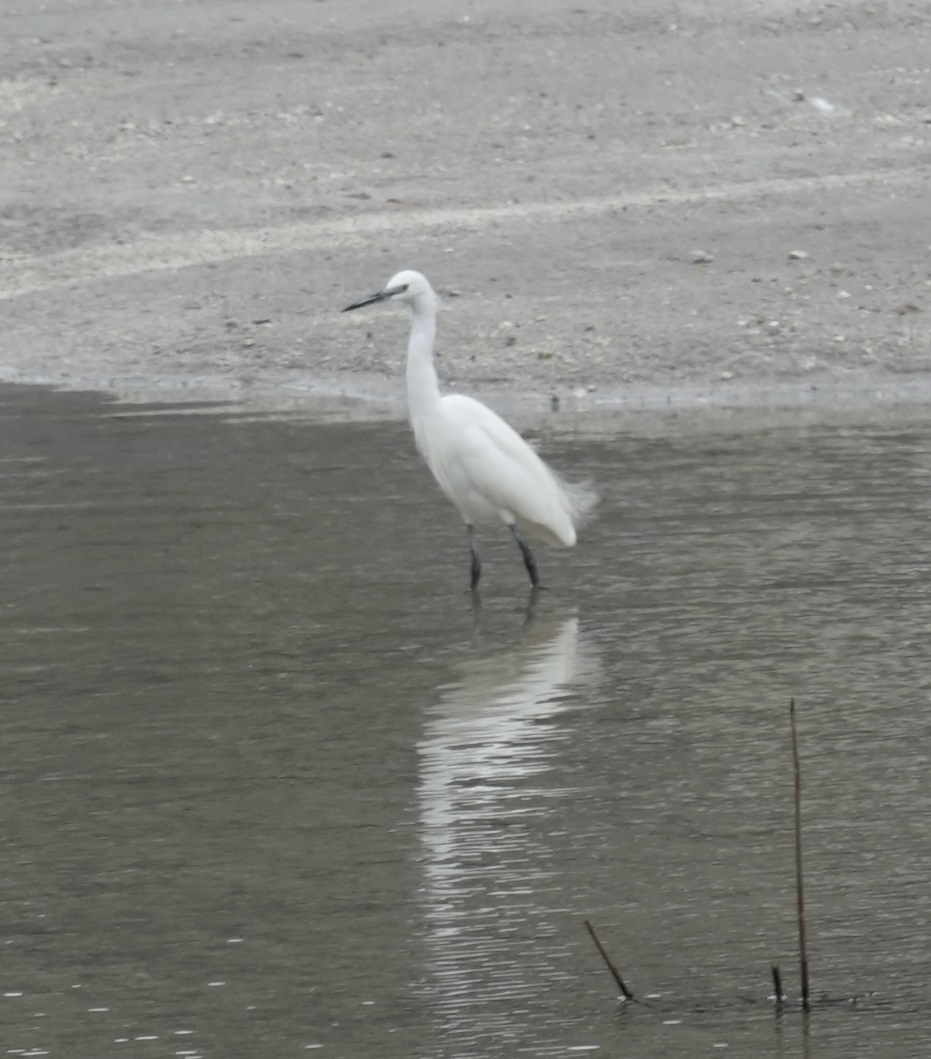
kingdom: Animalia
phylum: Chordata
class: Aves
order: Pelecaniformes
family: Ardeidae
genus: Egretta
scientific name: Egretta garzetta
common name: Little egret
